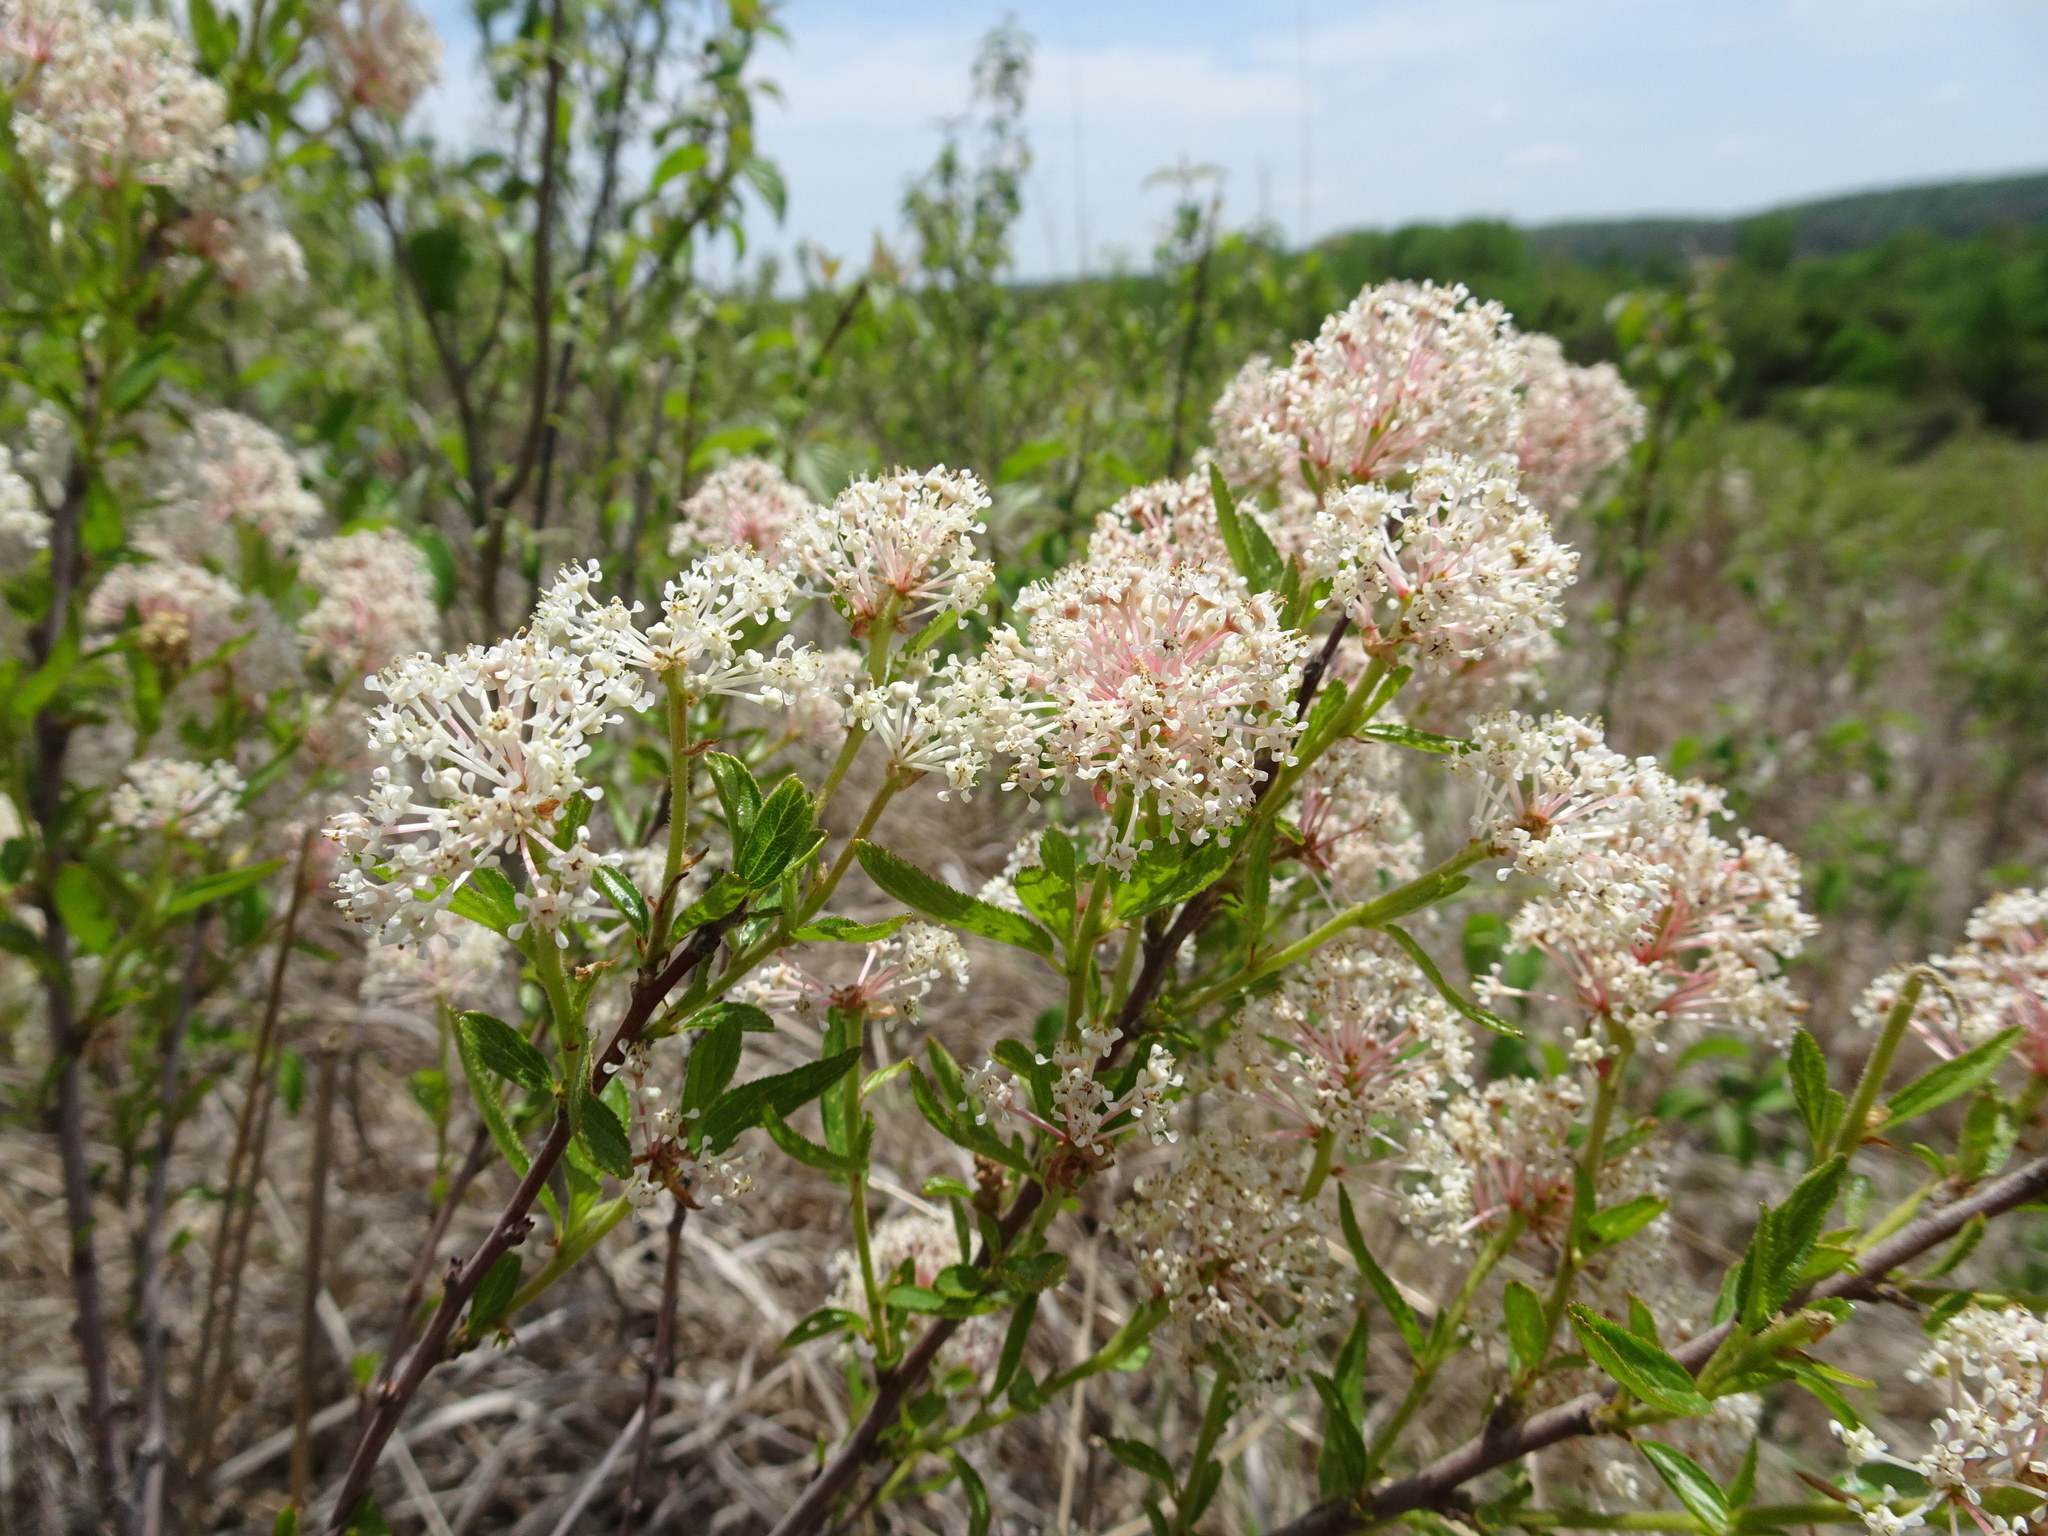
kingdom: Plantae
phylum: Tracheophyta
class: Magnoliopsida
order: Rosales
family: Rhamnaceae
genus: Ceanothus
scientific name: Ceanothus herbaceus
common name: Inland ceanothus
